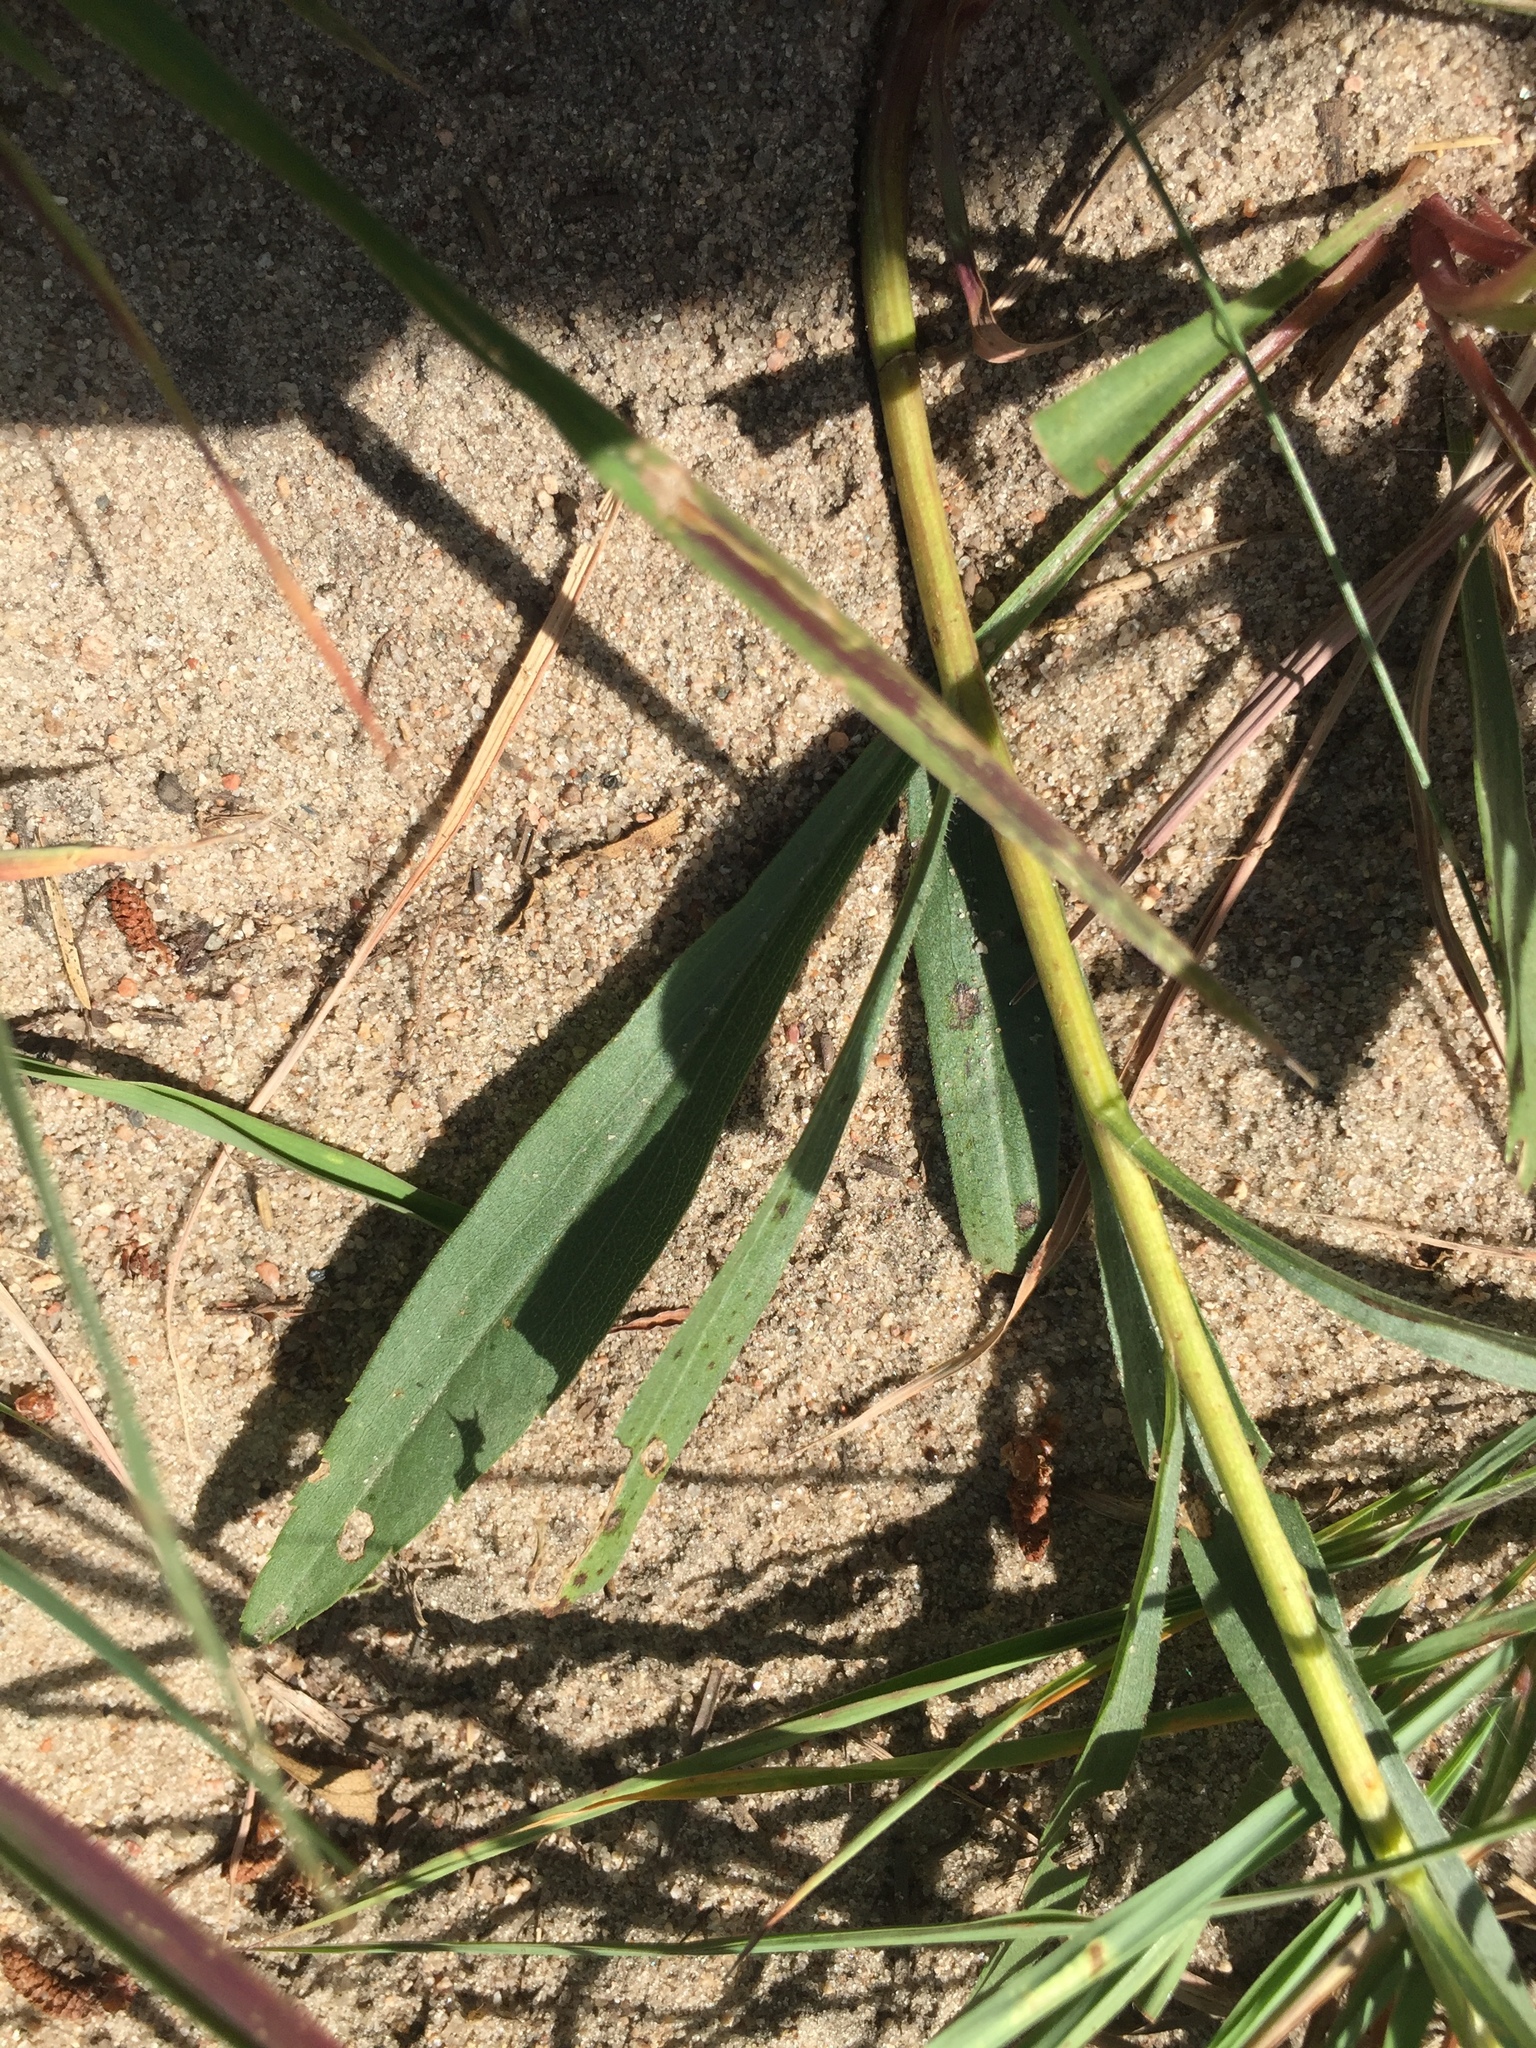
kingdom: Plantae
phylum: Tracheophyta
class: Magnoliopsida
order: Asterales
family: Asteraceae
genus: Solidago
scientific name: Solidago juncea
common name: Early goldenrod
